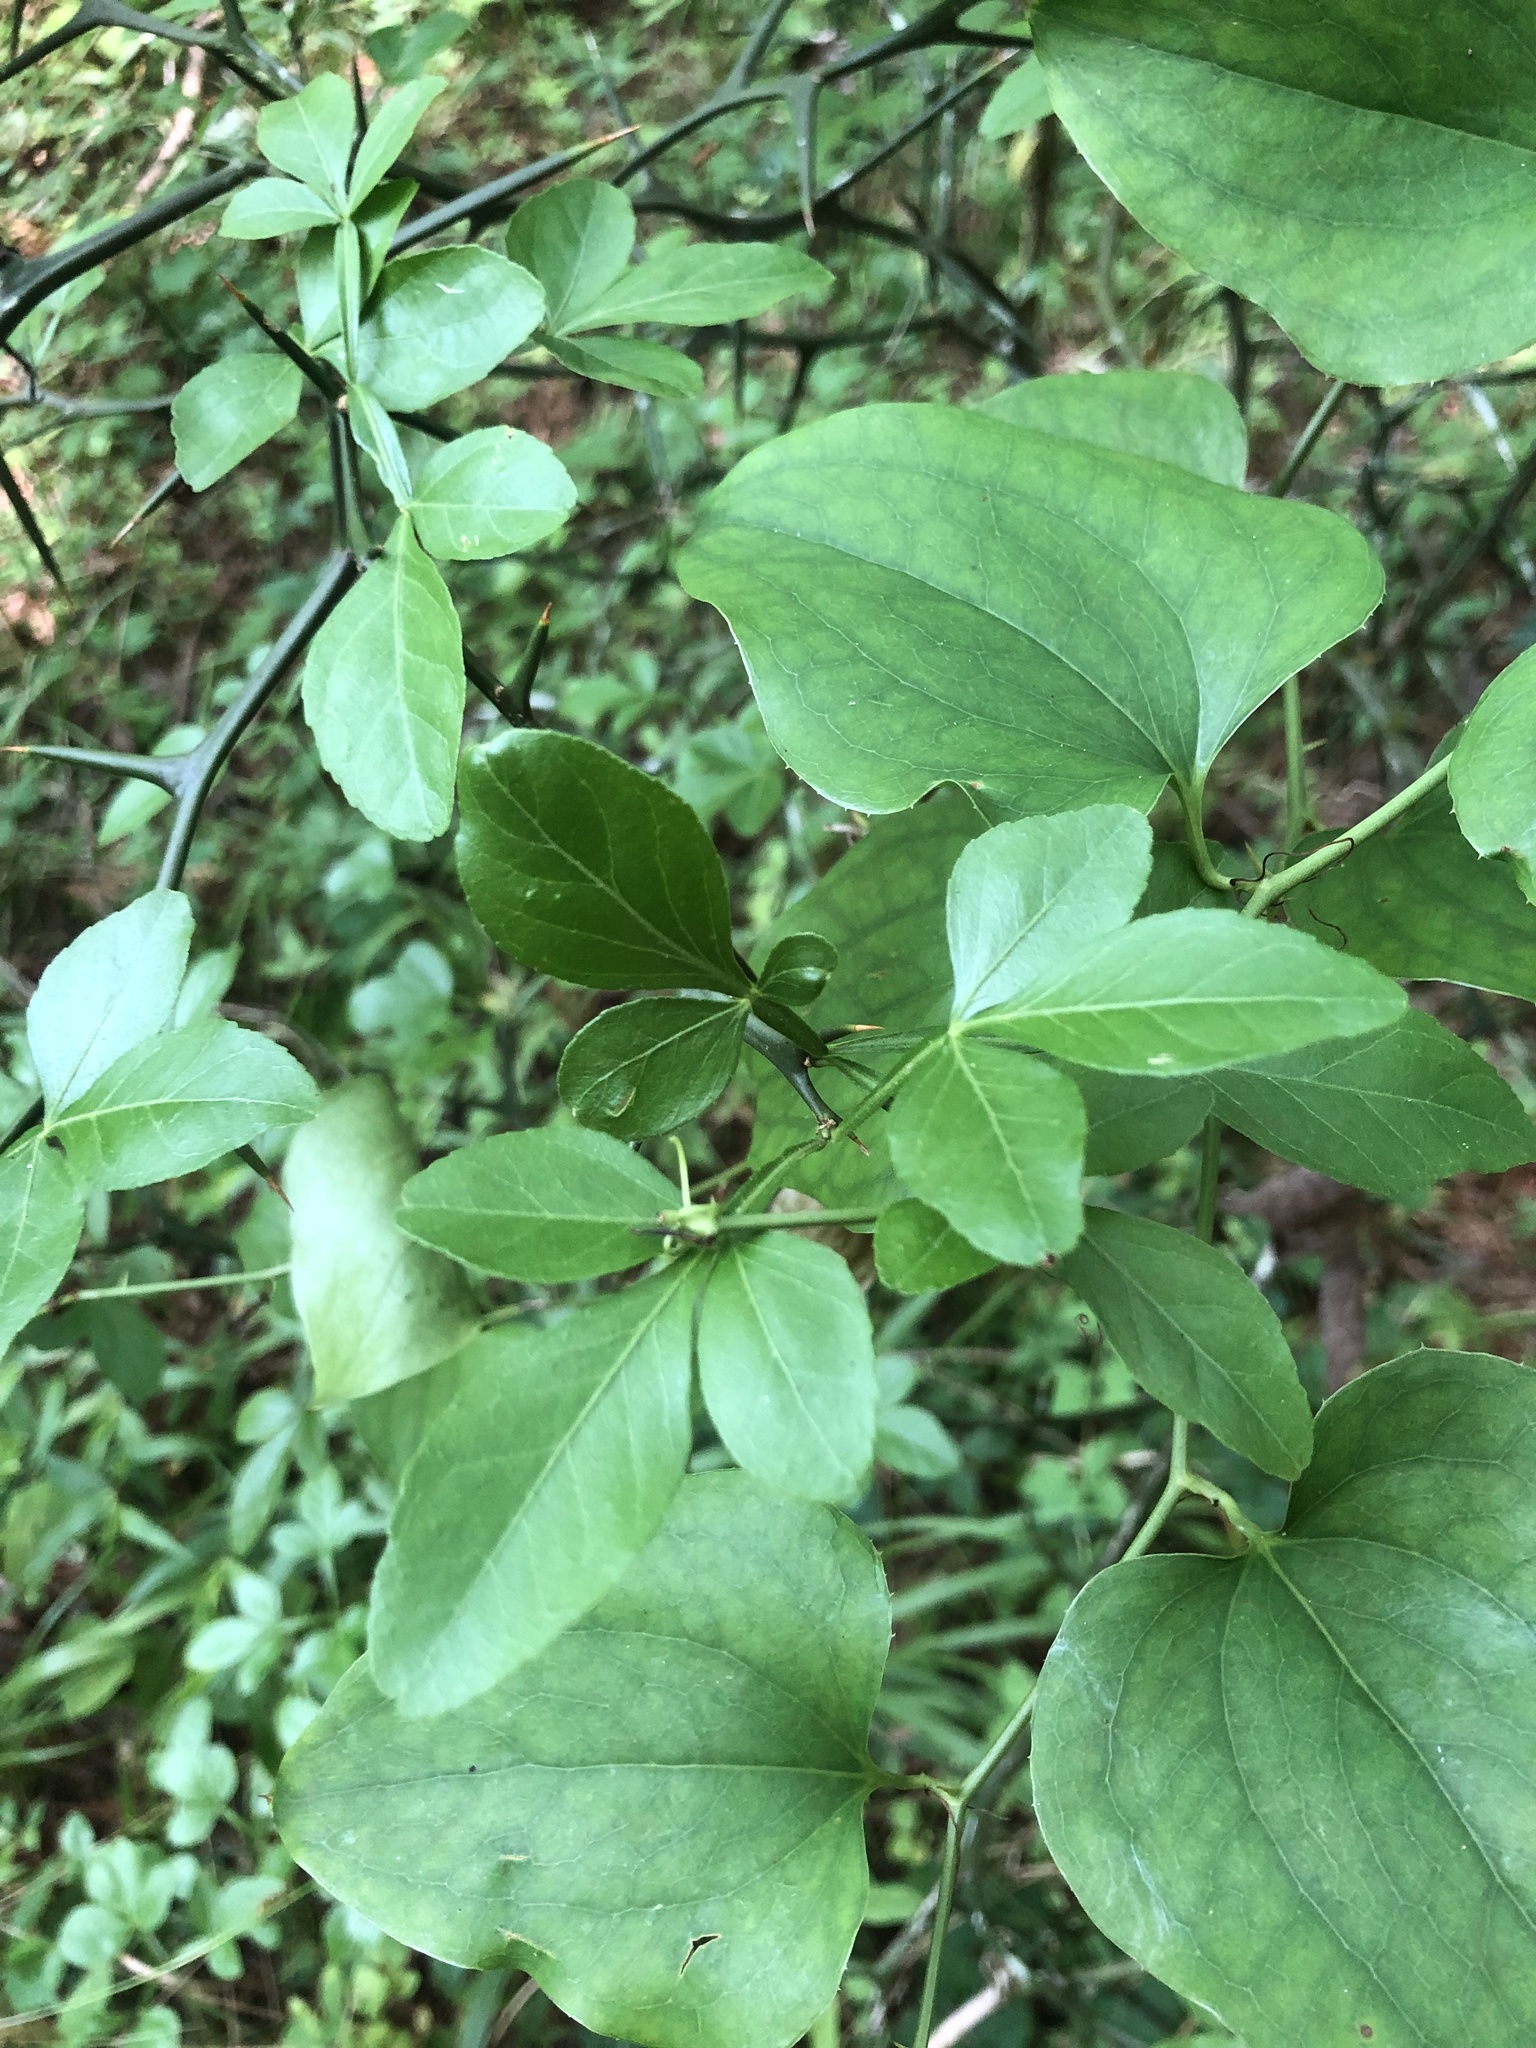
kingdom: Plantae
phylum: Tracheophyta
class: Magnoliopsida
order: Sapindales
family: Rutaceae
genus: Citrus
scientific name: Citrus trifoliata
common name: Japanese bitter-orange
